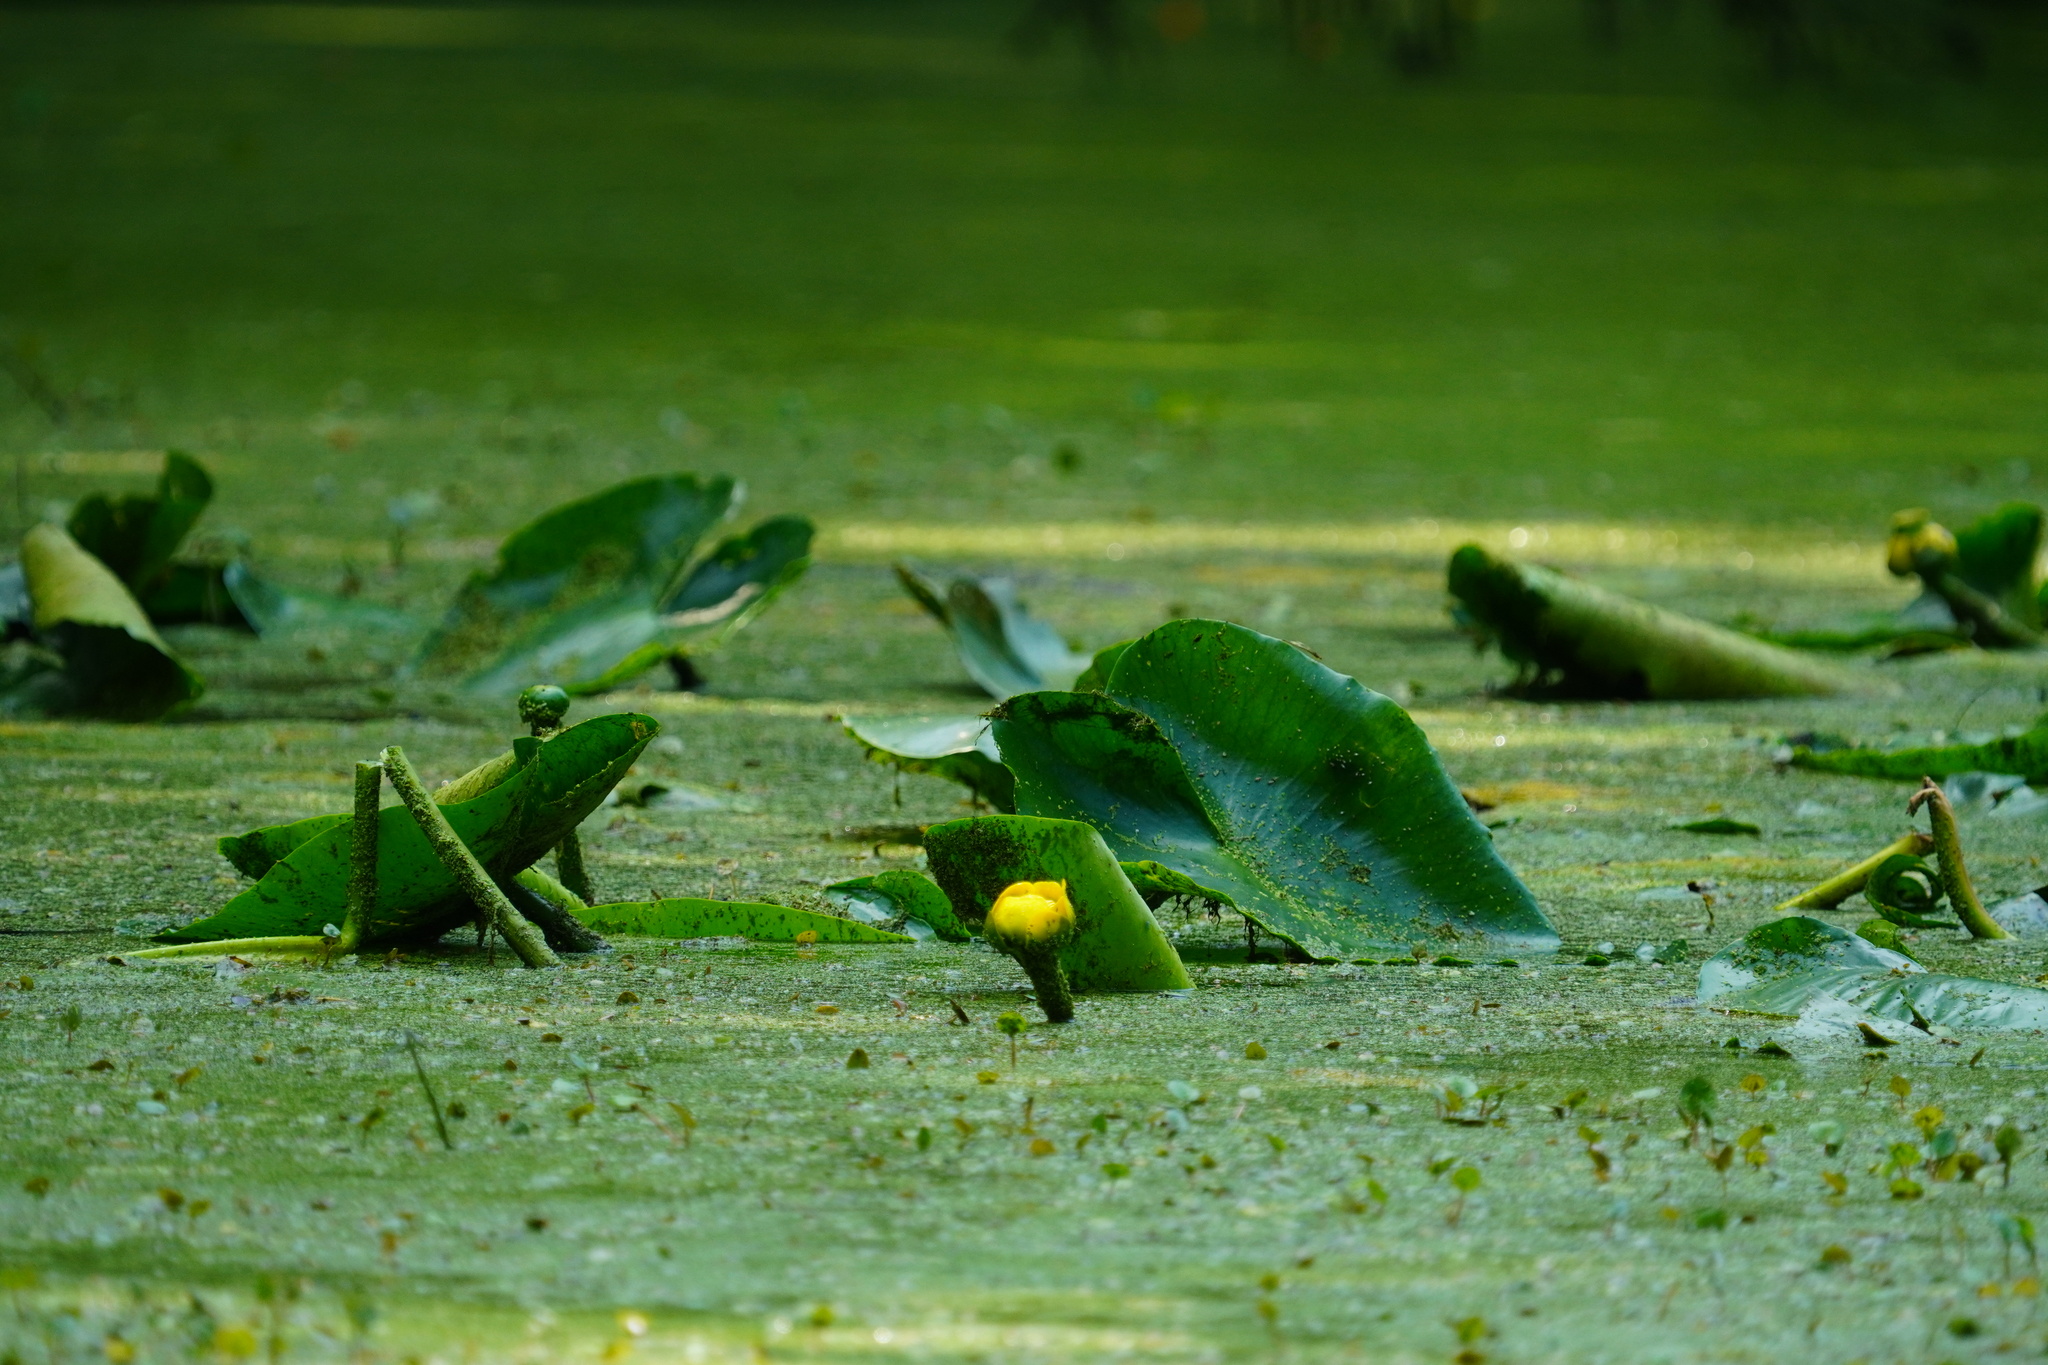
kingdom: Plantae
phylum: Tracheophyta
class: Magnoliopsida
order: Nymphaeales
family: Nymphaeaceae
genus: Nuphar
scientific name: Nuphar advena
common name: Spatter-dock
